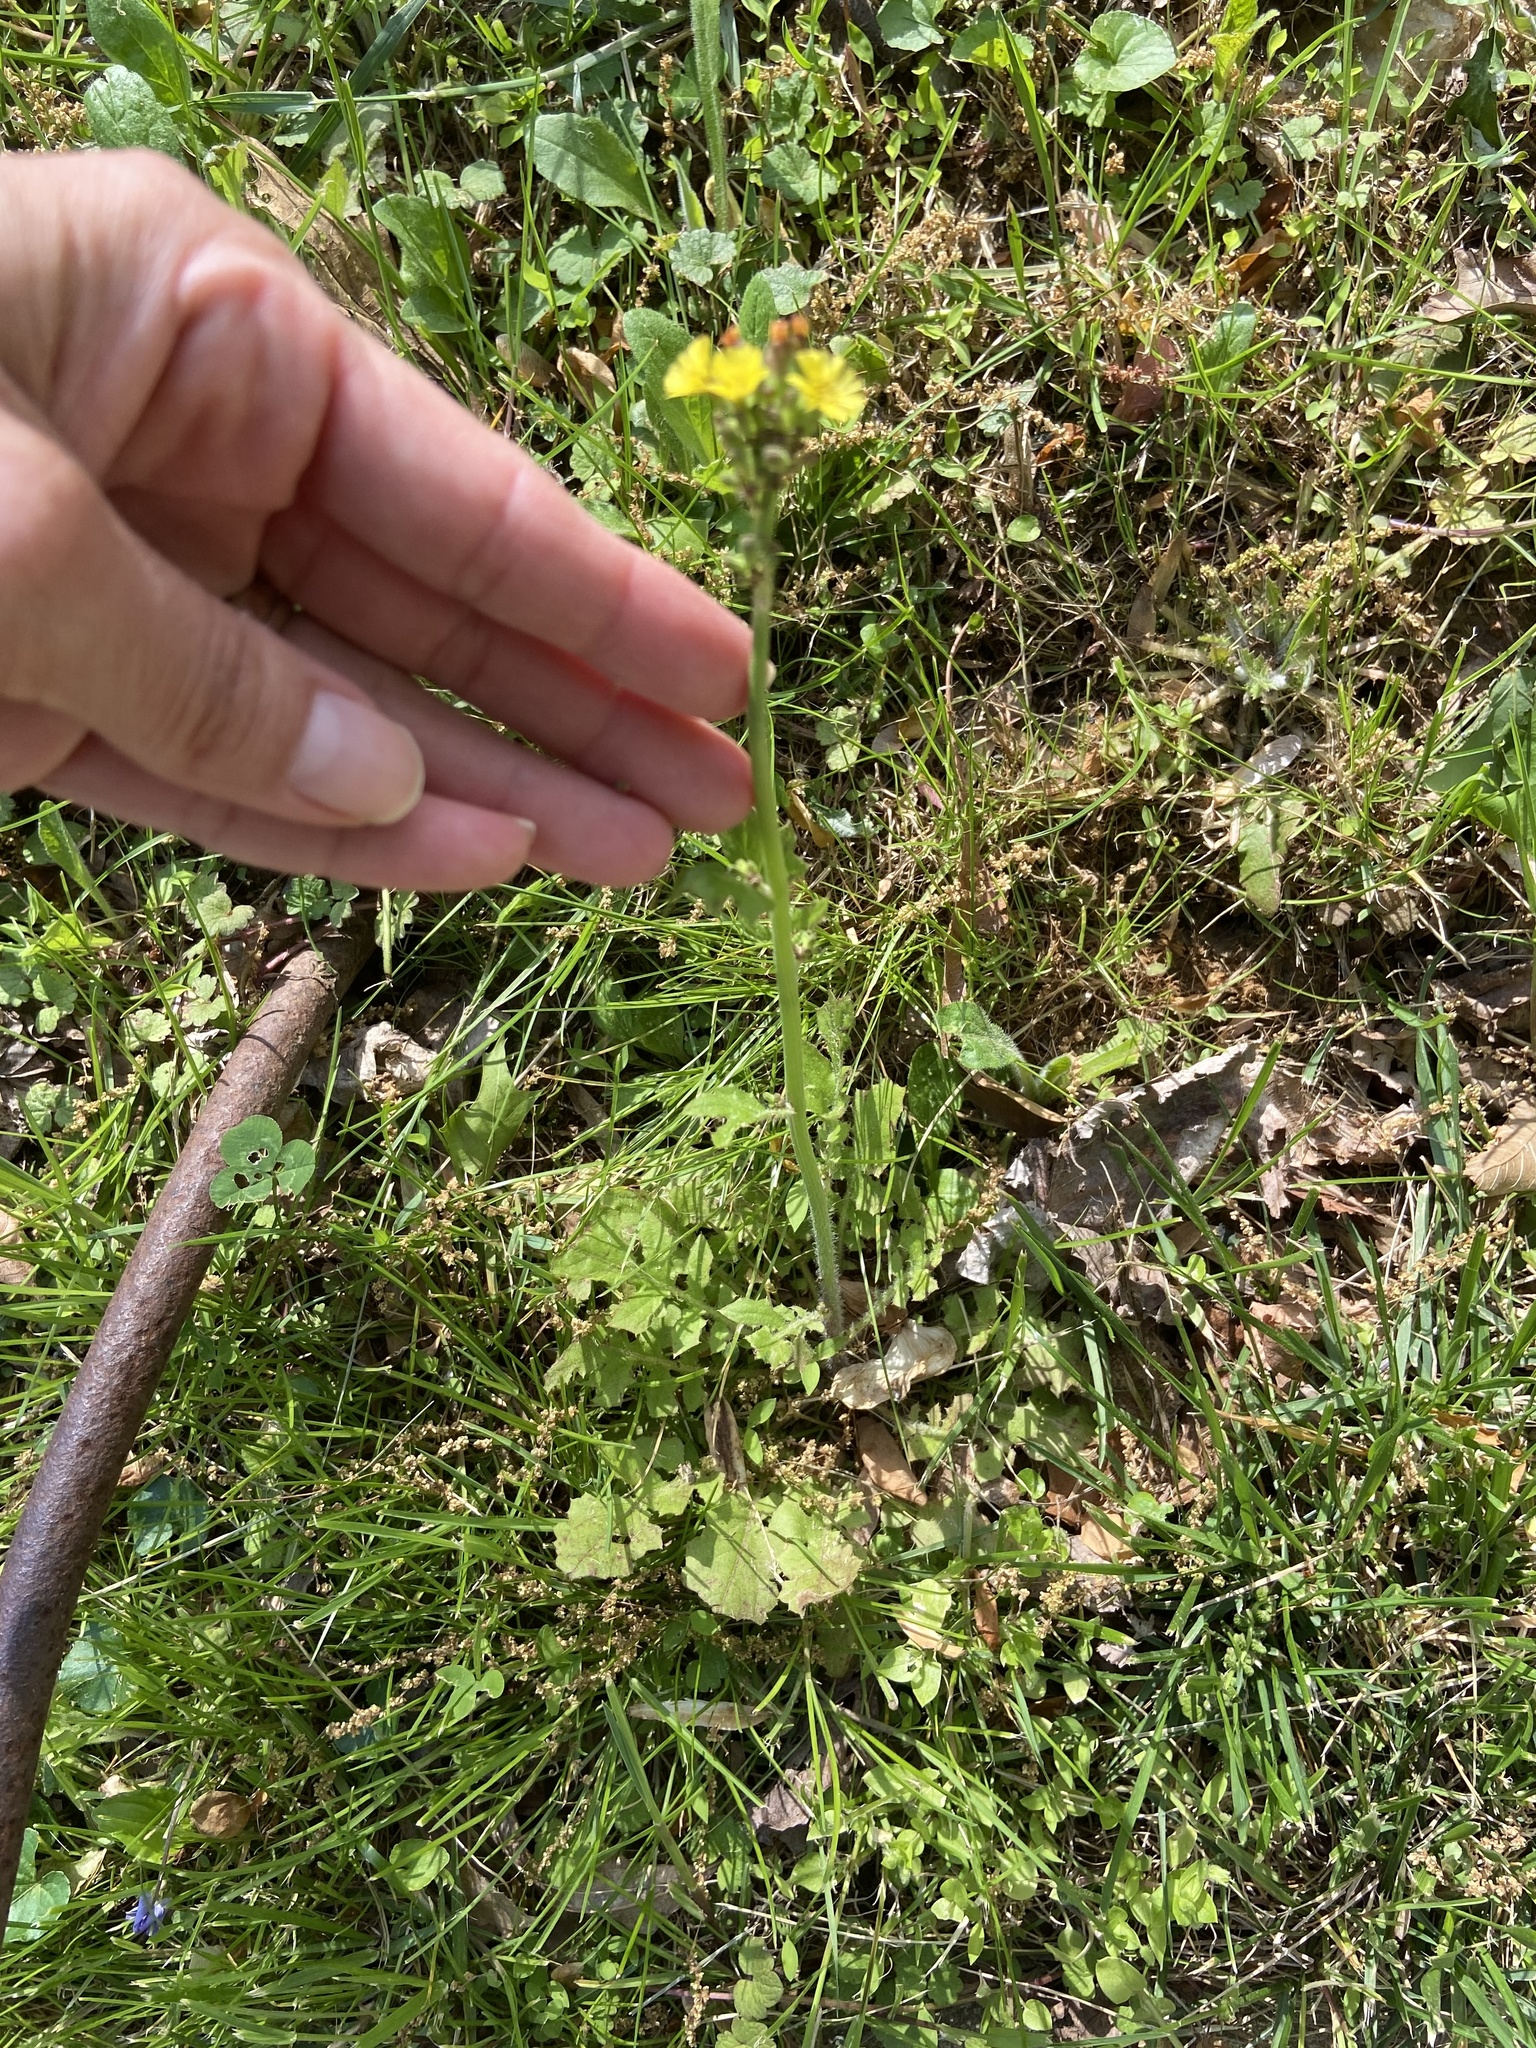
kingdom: Plantae
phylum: Tracheophyta
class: Magnoliopsida
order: Asterales
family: Asteraceae
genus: Youngia
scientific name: Youngia japonica
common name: Oriental false hawksbeard
